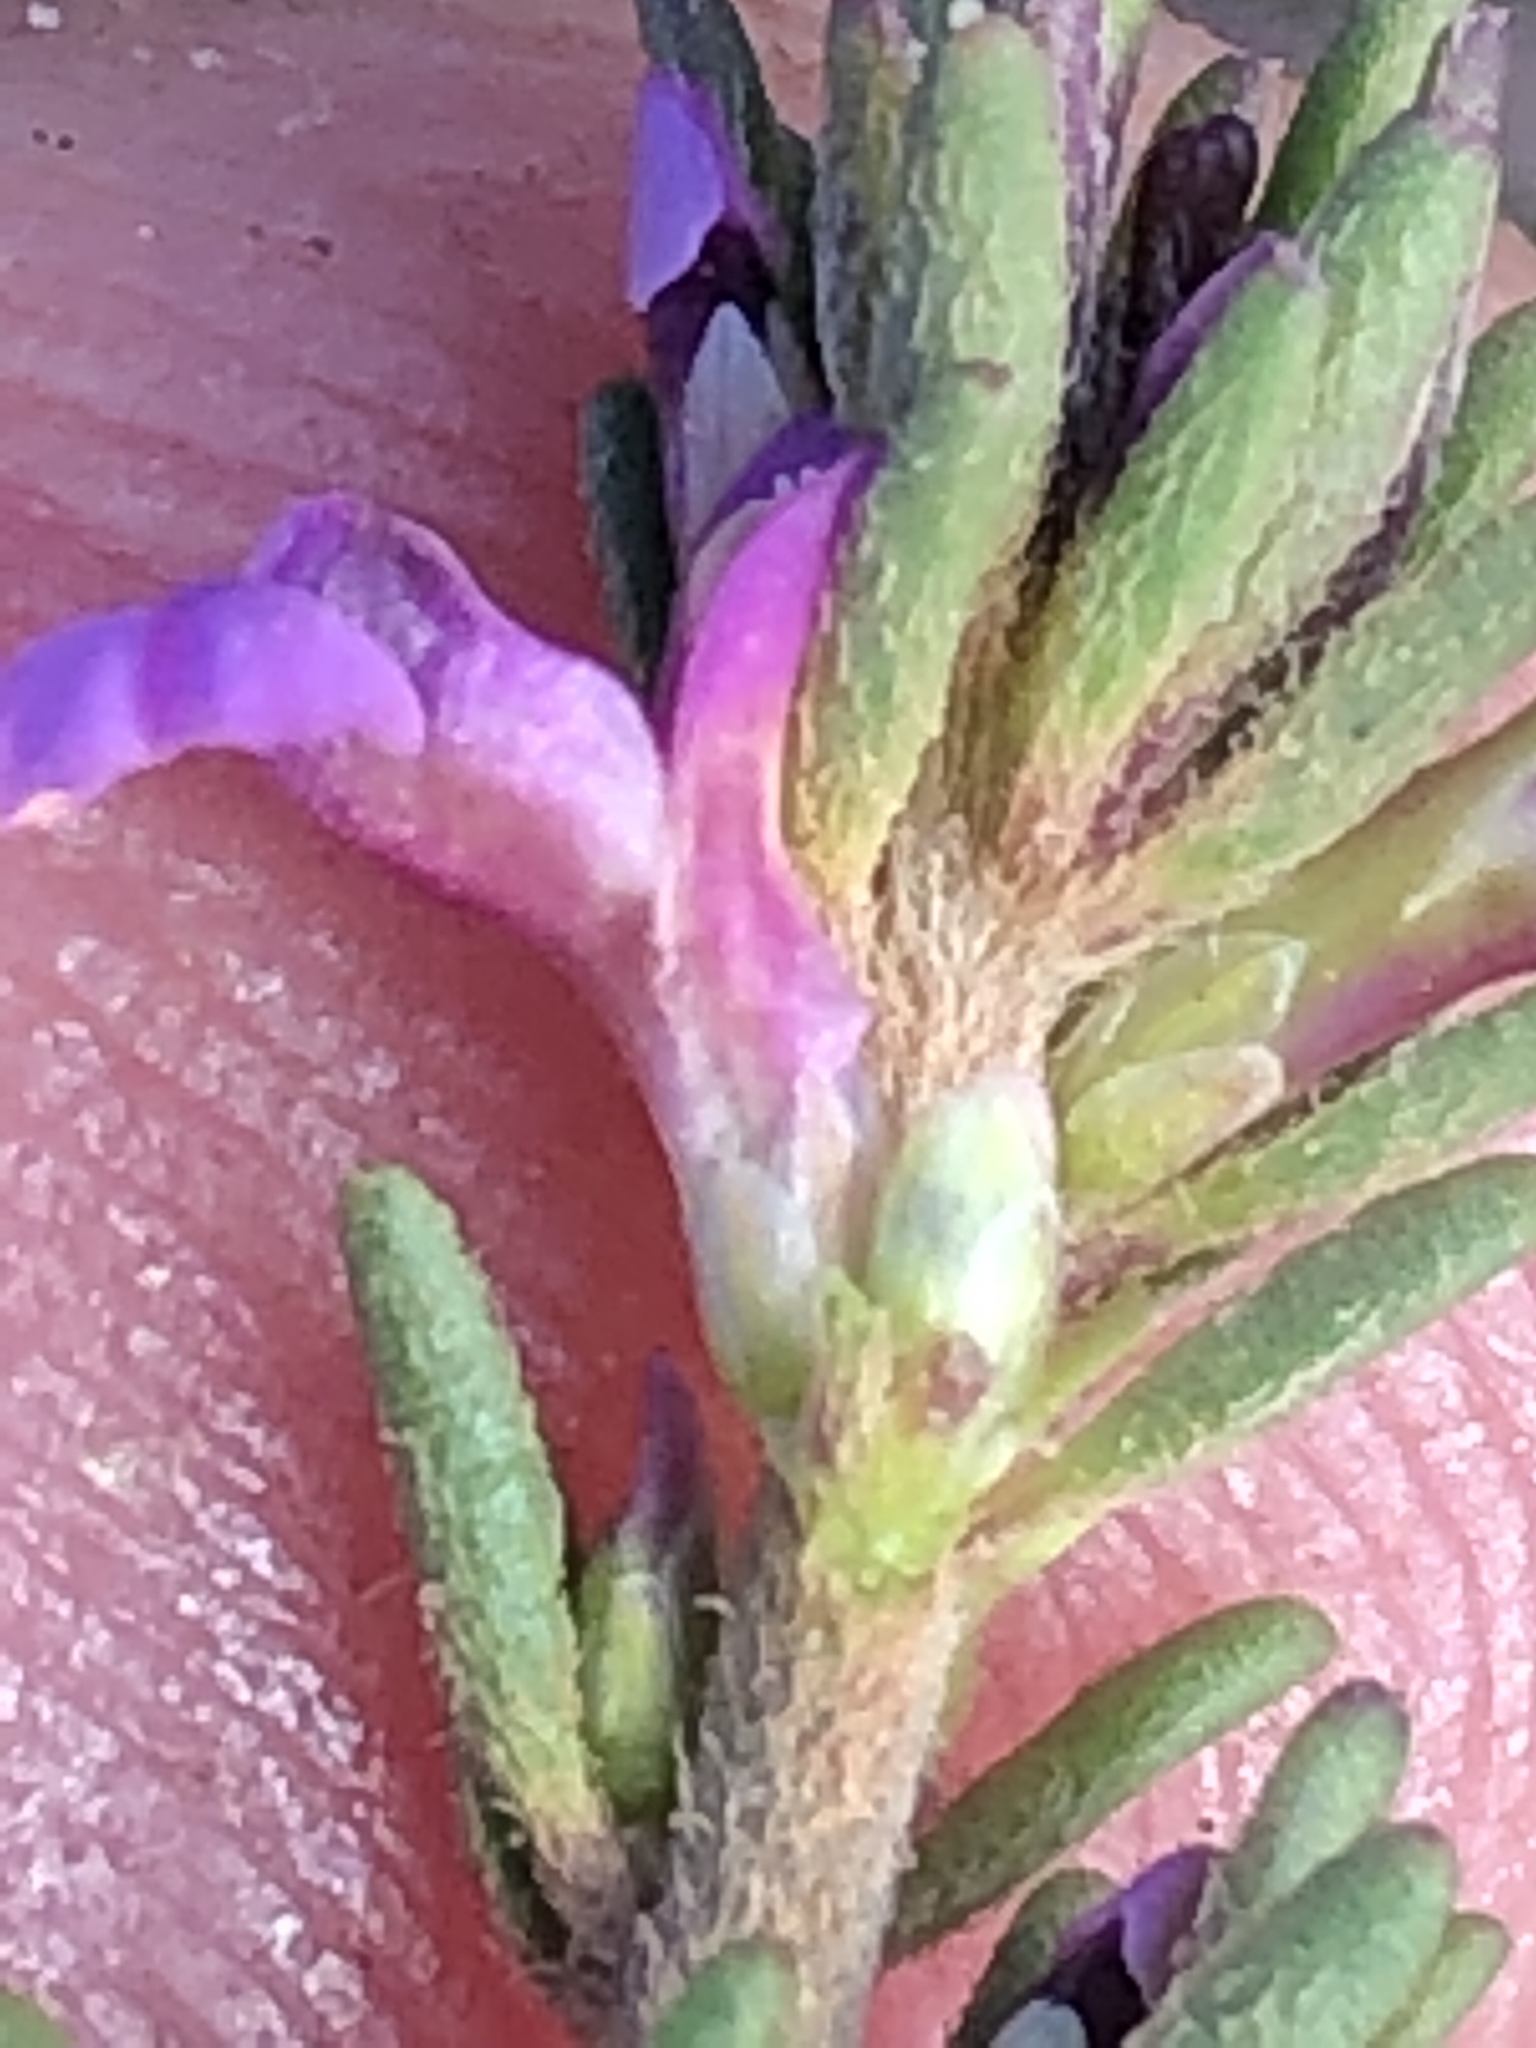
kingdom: Plantae
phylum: Tracheophyta
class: Magnoliopsida
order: Fabales
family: Polygalaceae
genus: Muraltia
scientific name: Muraltia alopecuroides
